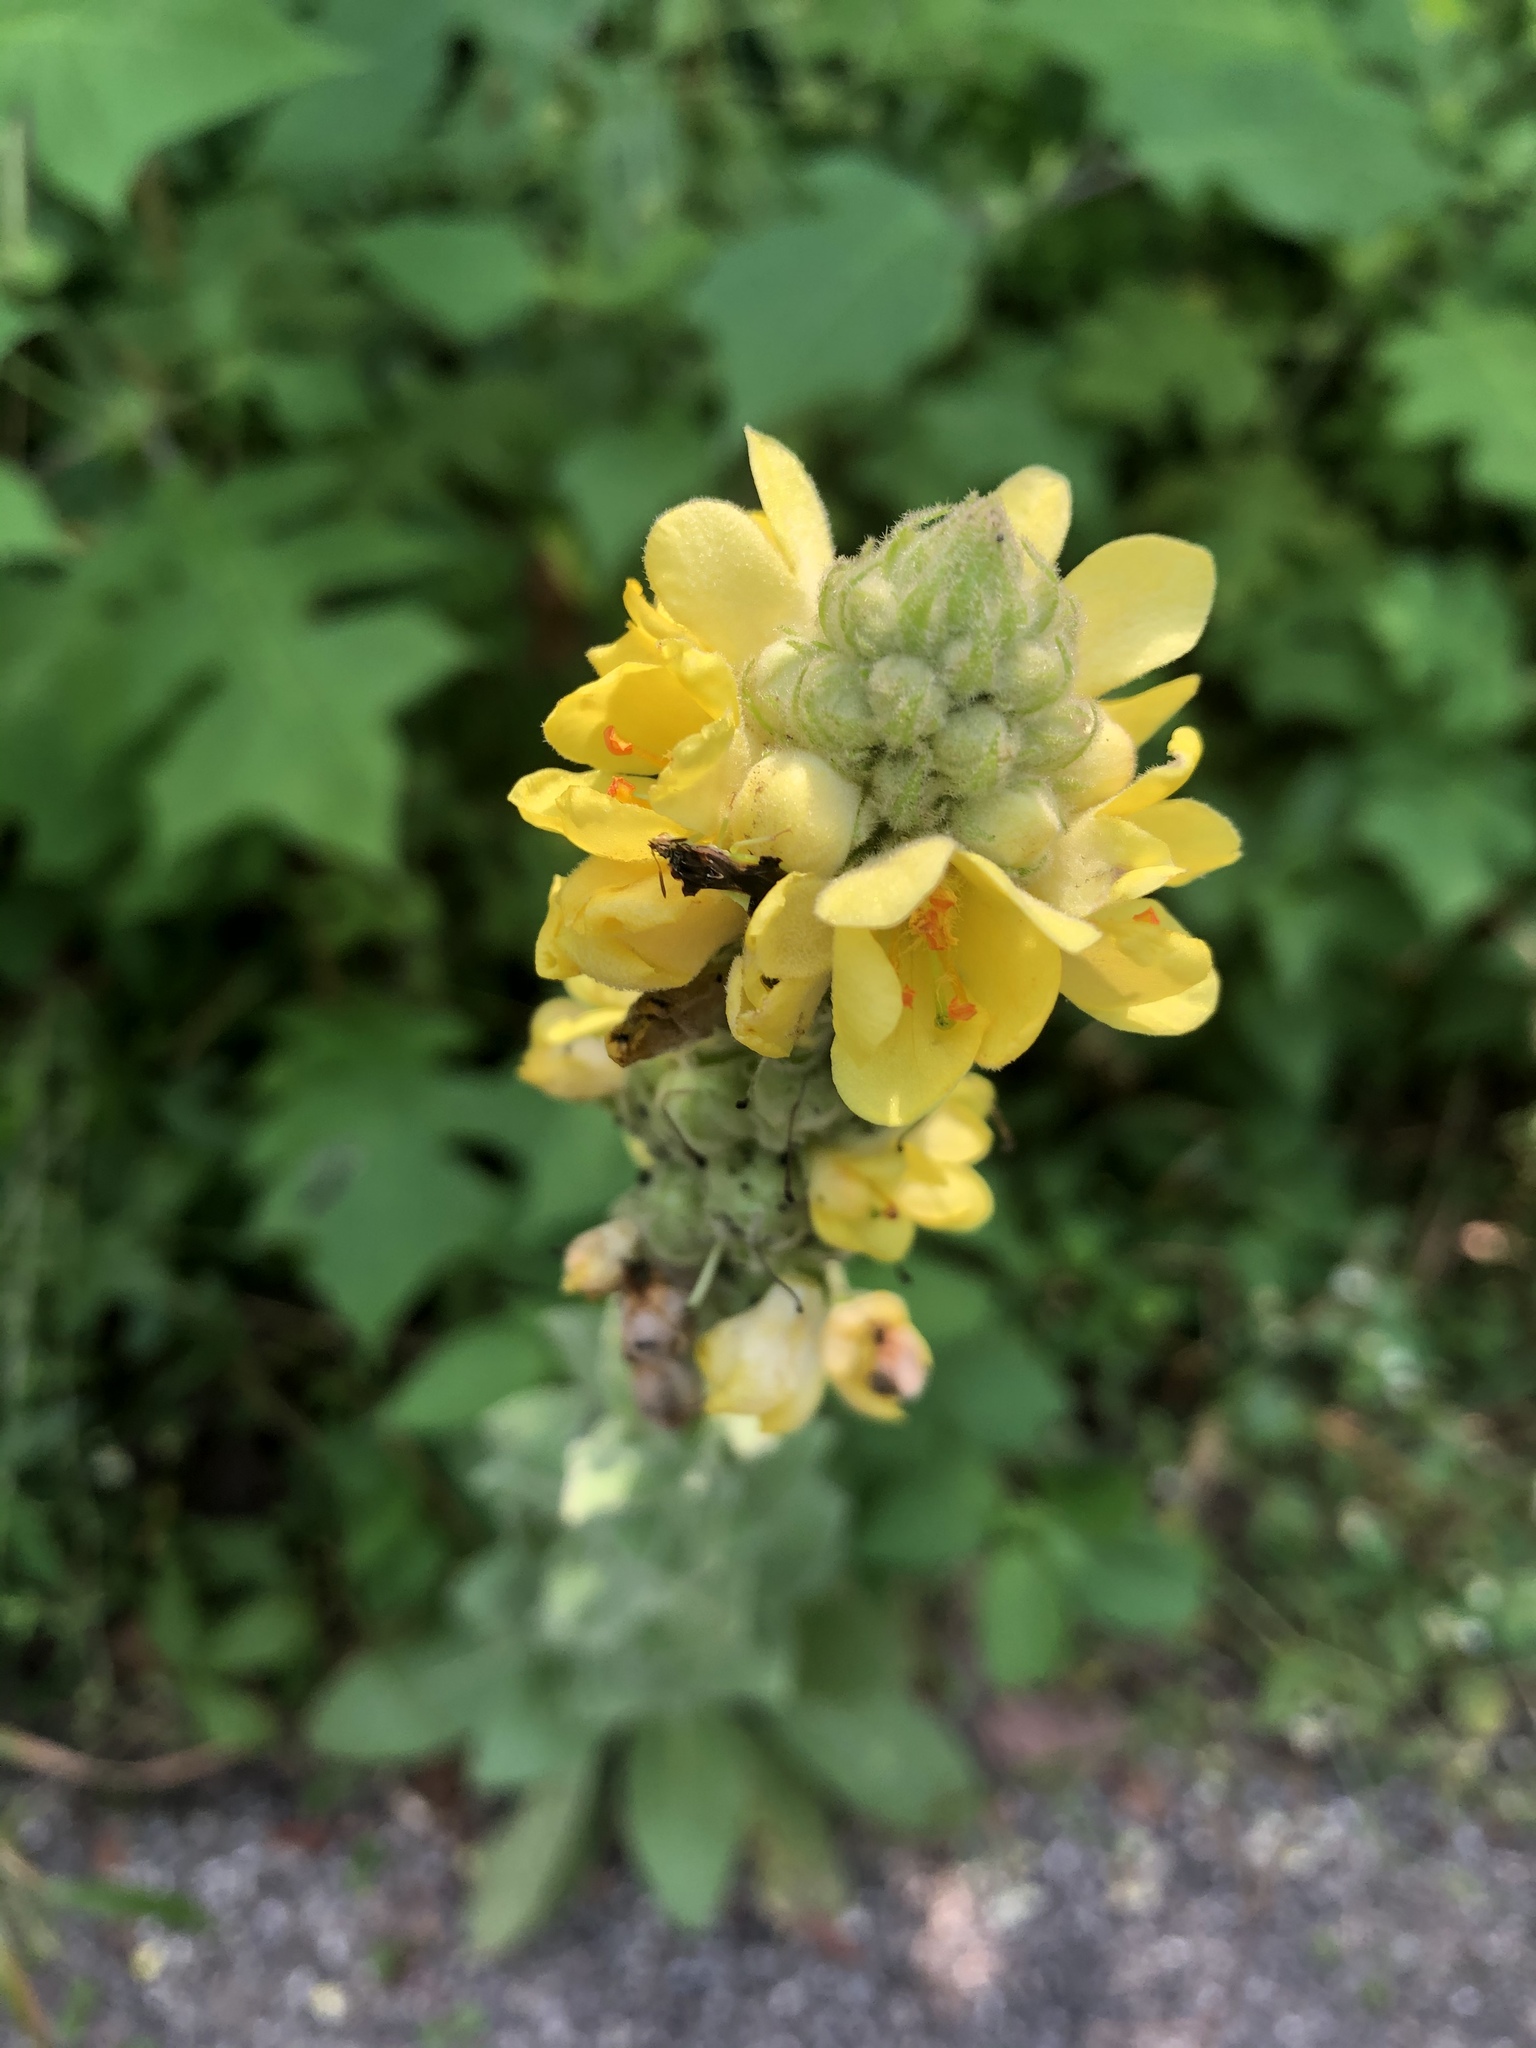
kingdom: Plantae
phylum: Tracheophyta
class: Magnoliopsida
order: Lamiales
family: Scrophulariaceae
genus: Verbascum
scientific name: Verbascum thapsus
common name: Common mullein
